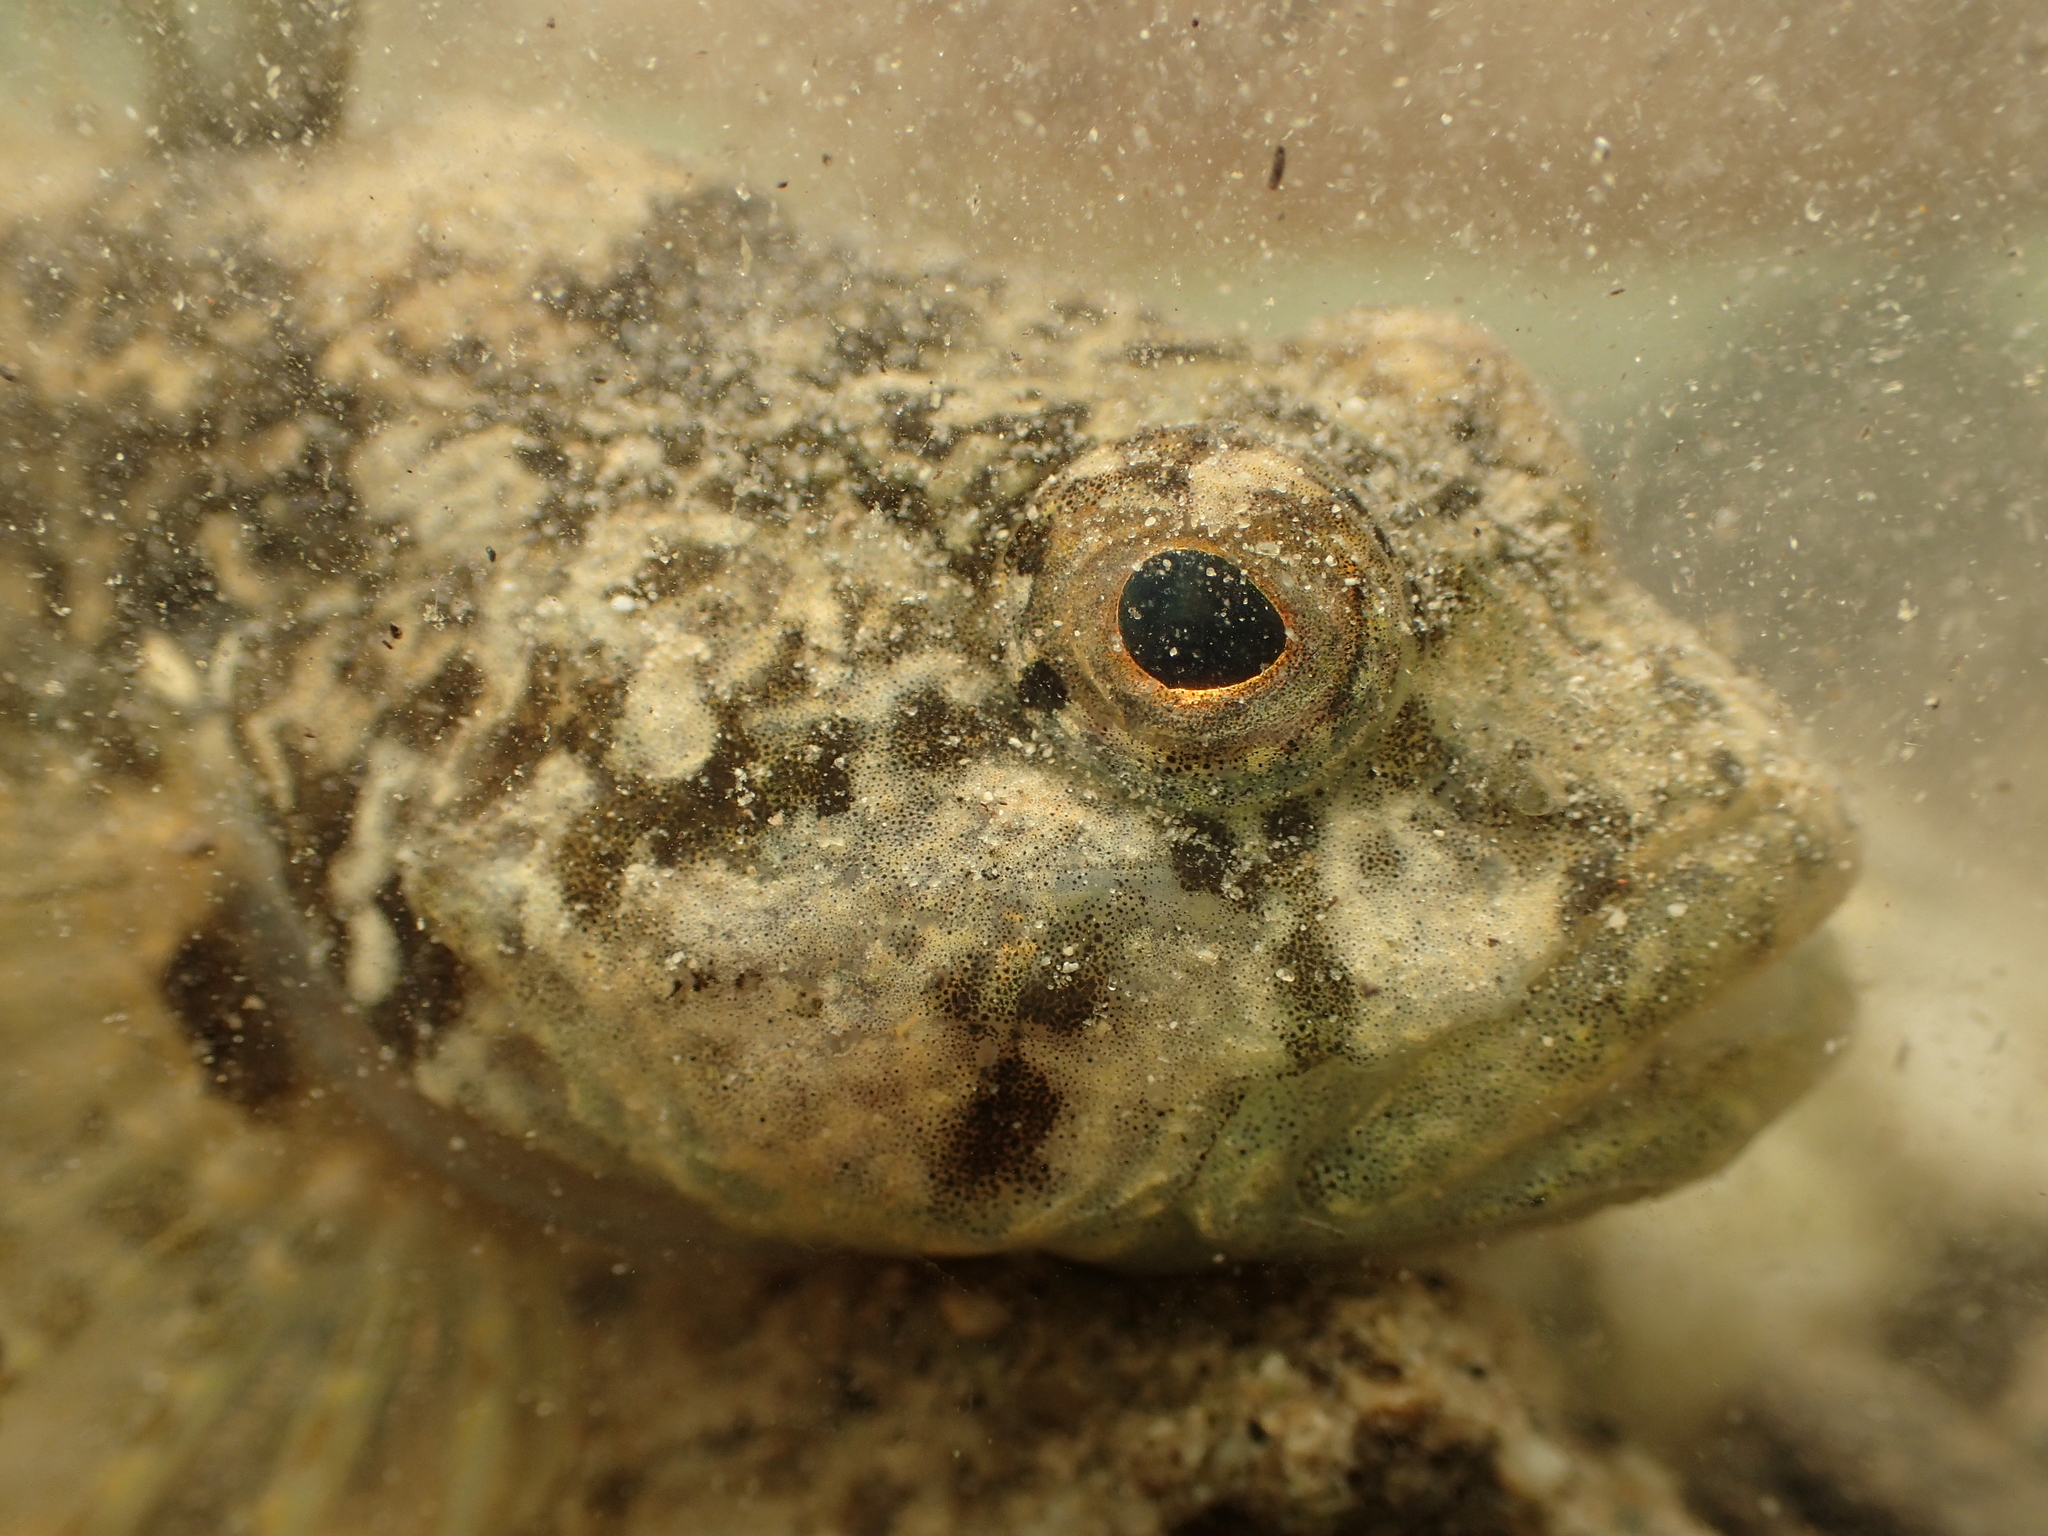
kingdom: Animalia
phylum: Chordata
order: Scorpaeniformes
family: Cottidae
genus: Cottus
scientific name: Cottus rondeleti
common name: Hérault sculpin
